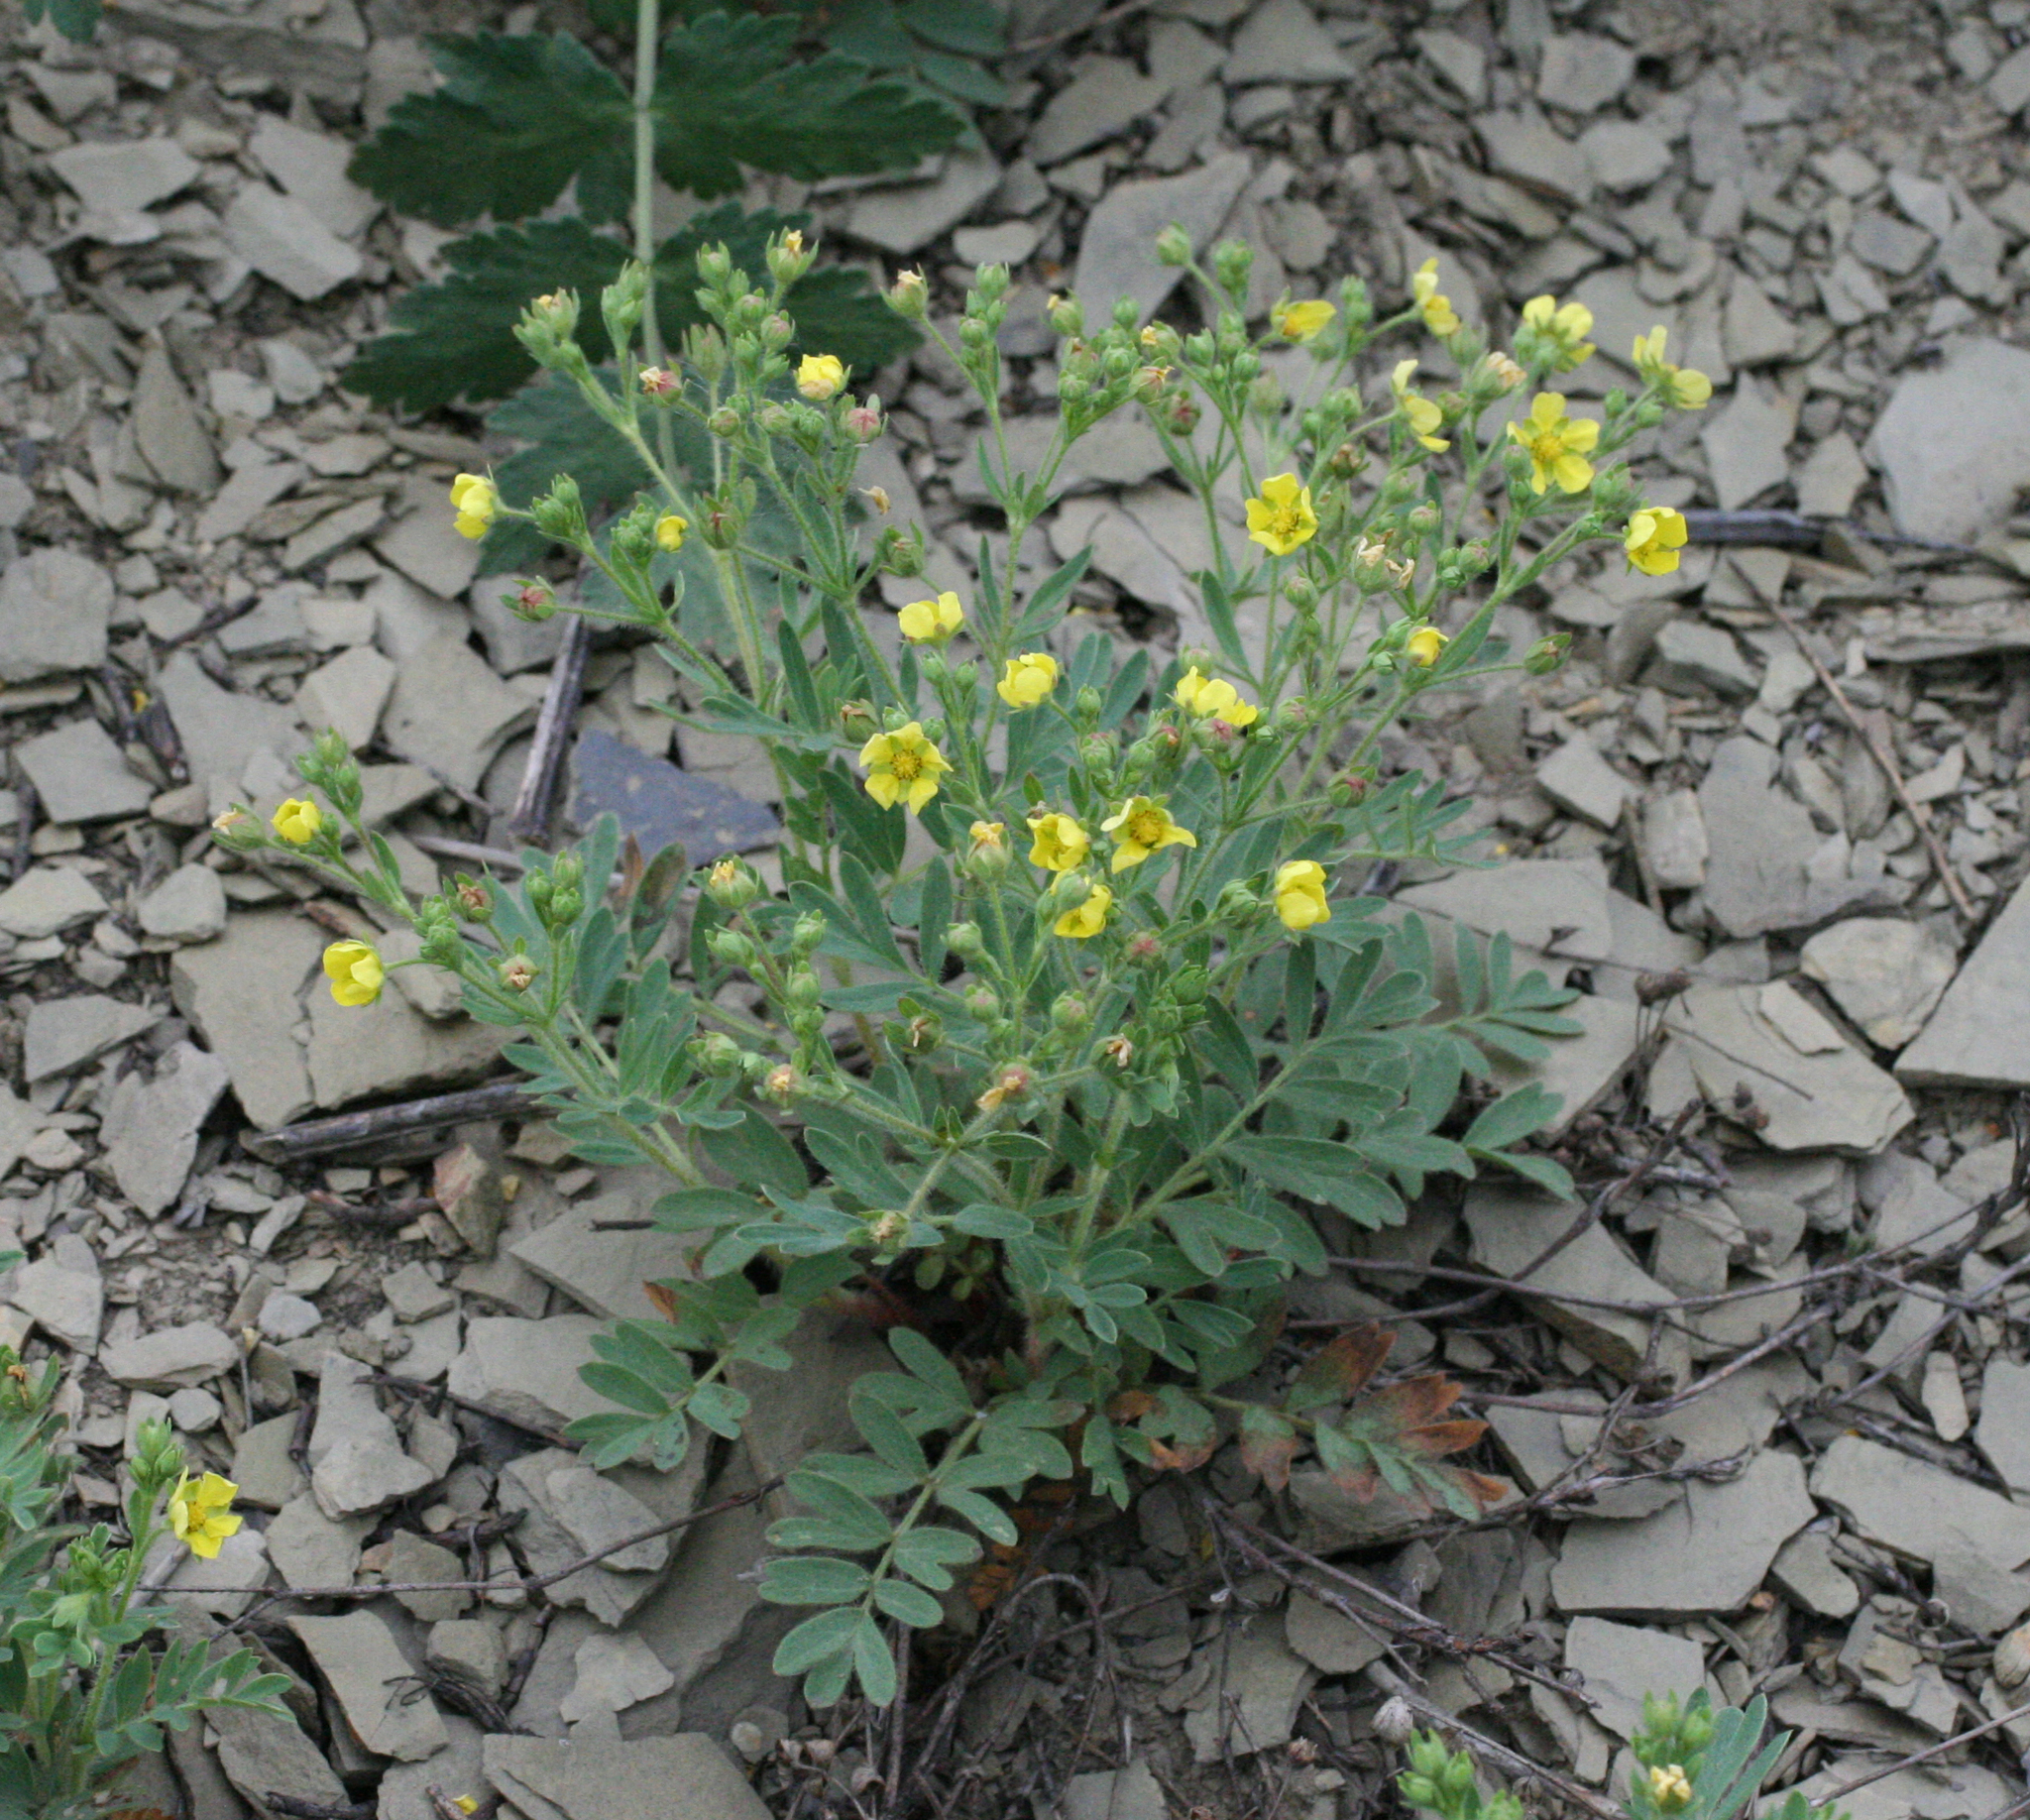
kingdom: Plantae
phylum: Tracheophyta
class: Magnoliopsida
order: Rosales
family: Rosaceae
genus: Sibbaldianthe
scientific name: Sibbaldianthe bifurca
